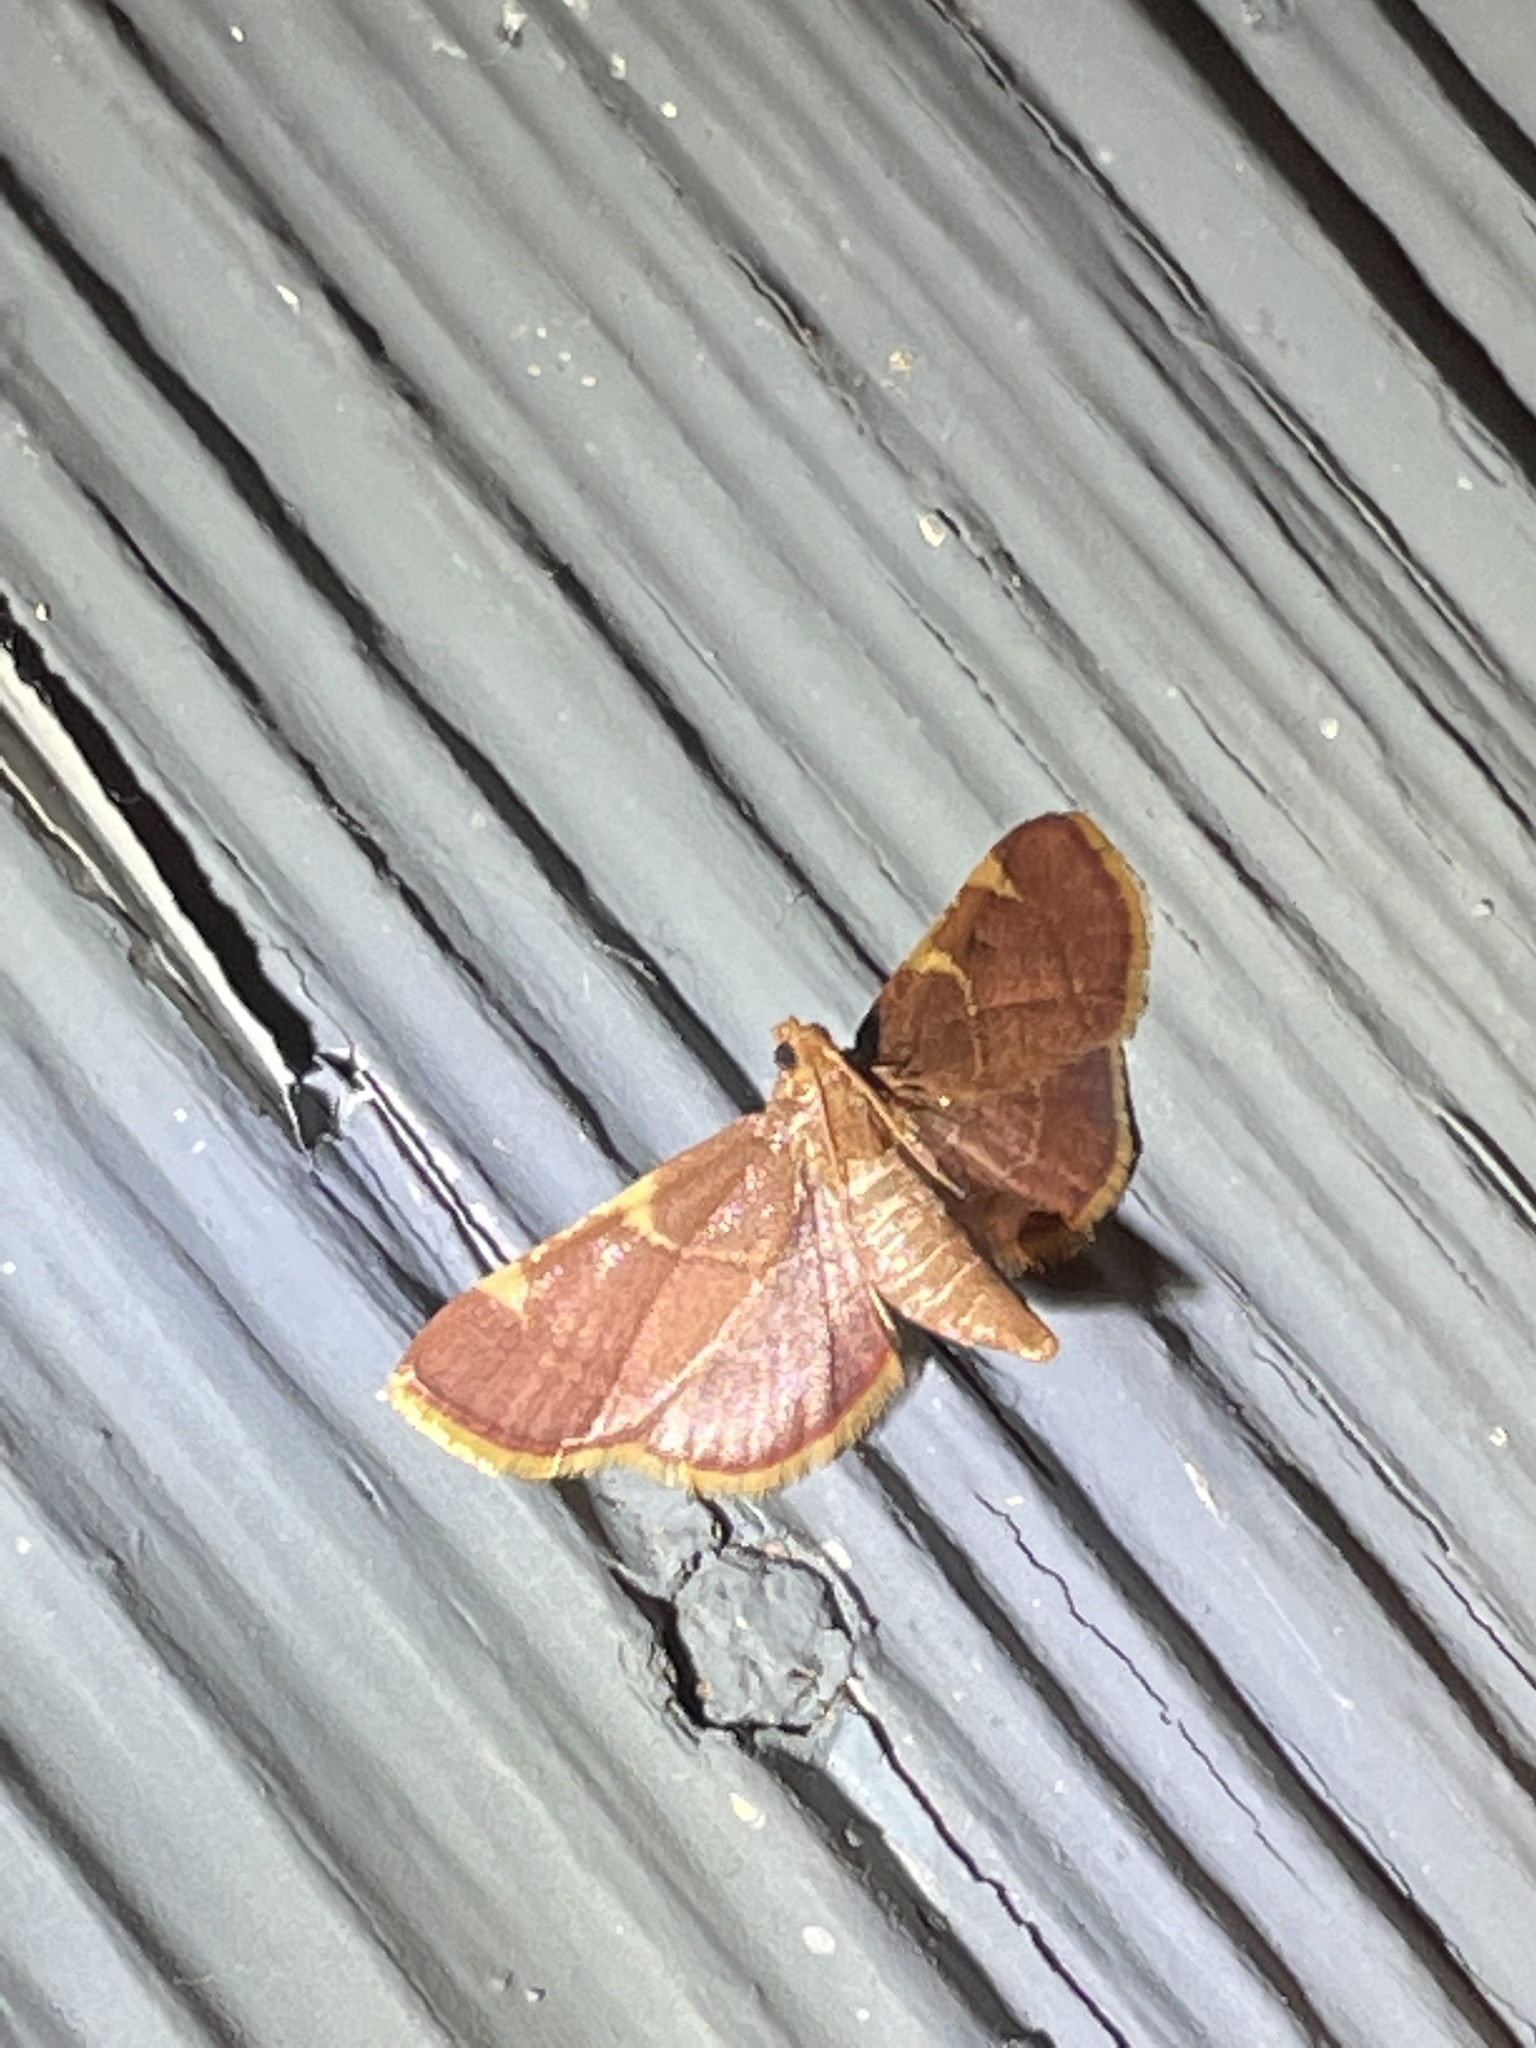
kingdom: Animalia
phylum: Arthropoda
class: Insecta
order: Lepidoptera
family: Pyralidae
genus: Hypsopygia
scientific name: Hypsopygia olinalis
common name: Yellow-fringed dolichomia moth
